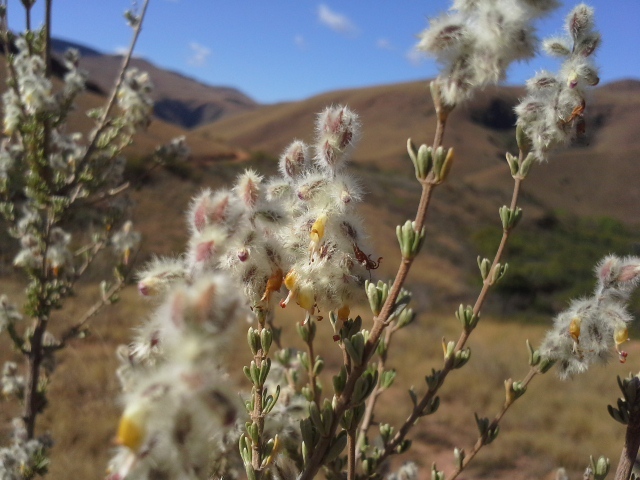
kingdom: Plantae
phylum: Tracheophyta
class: Magnoliopsida
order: Lamiales
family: Lamiaceae
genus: Syncolostemon
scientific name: Syncolostemon eriocephalus
